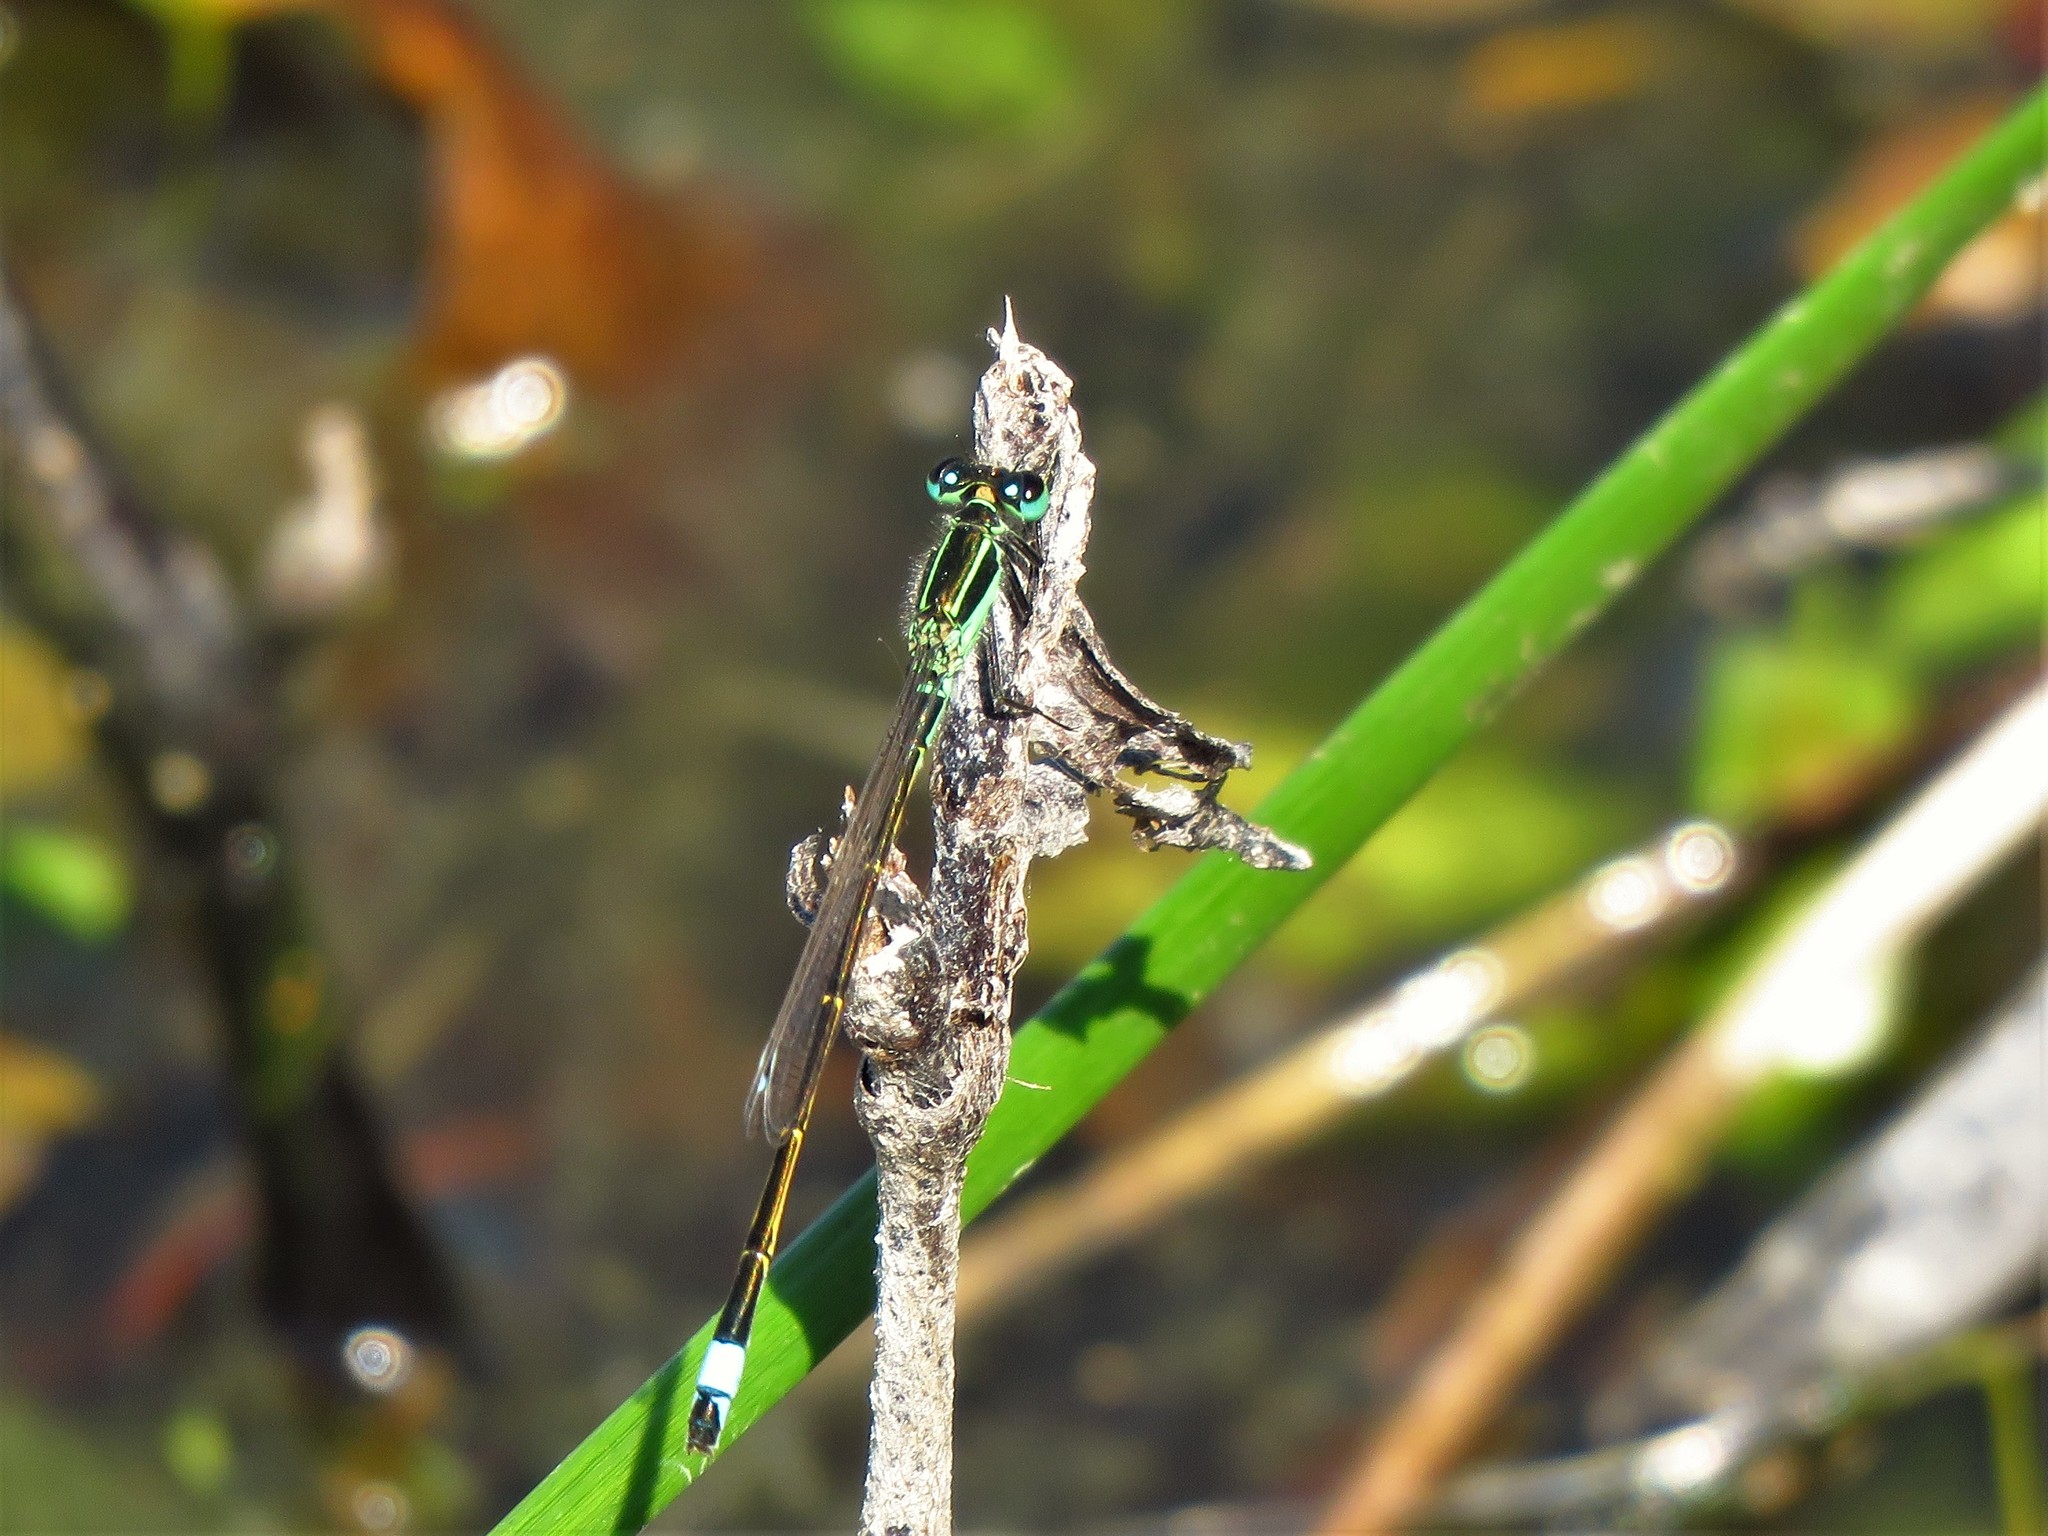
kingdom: Animalia
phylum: Arthropoda
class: Insecta
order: Odonata
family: Coenagrionidae
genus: Ischnura
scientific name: Ischnura ramburii
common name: Rambur's forktail
